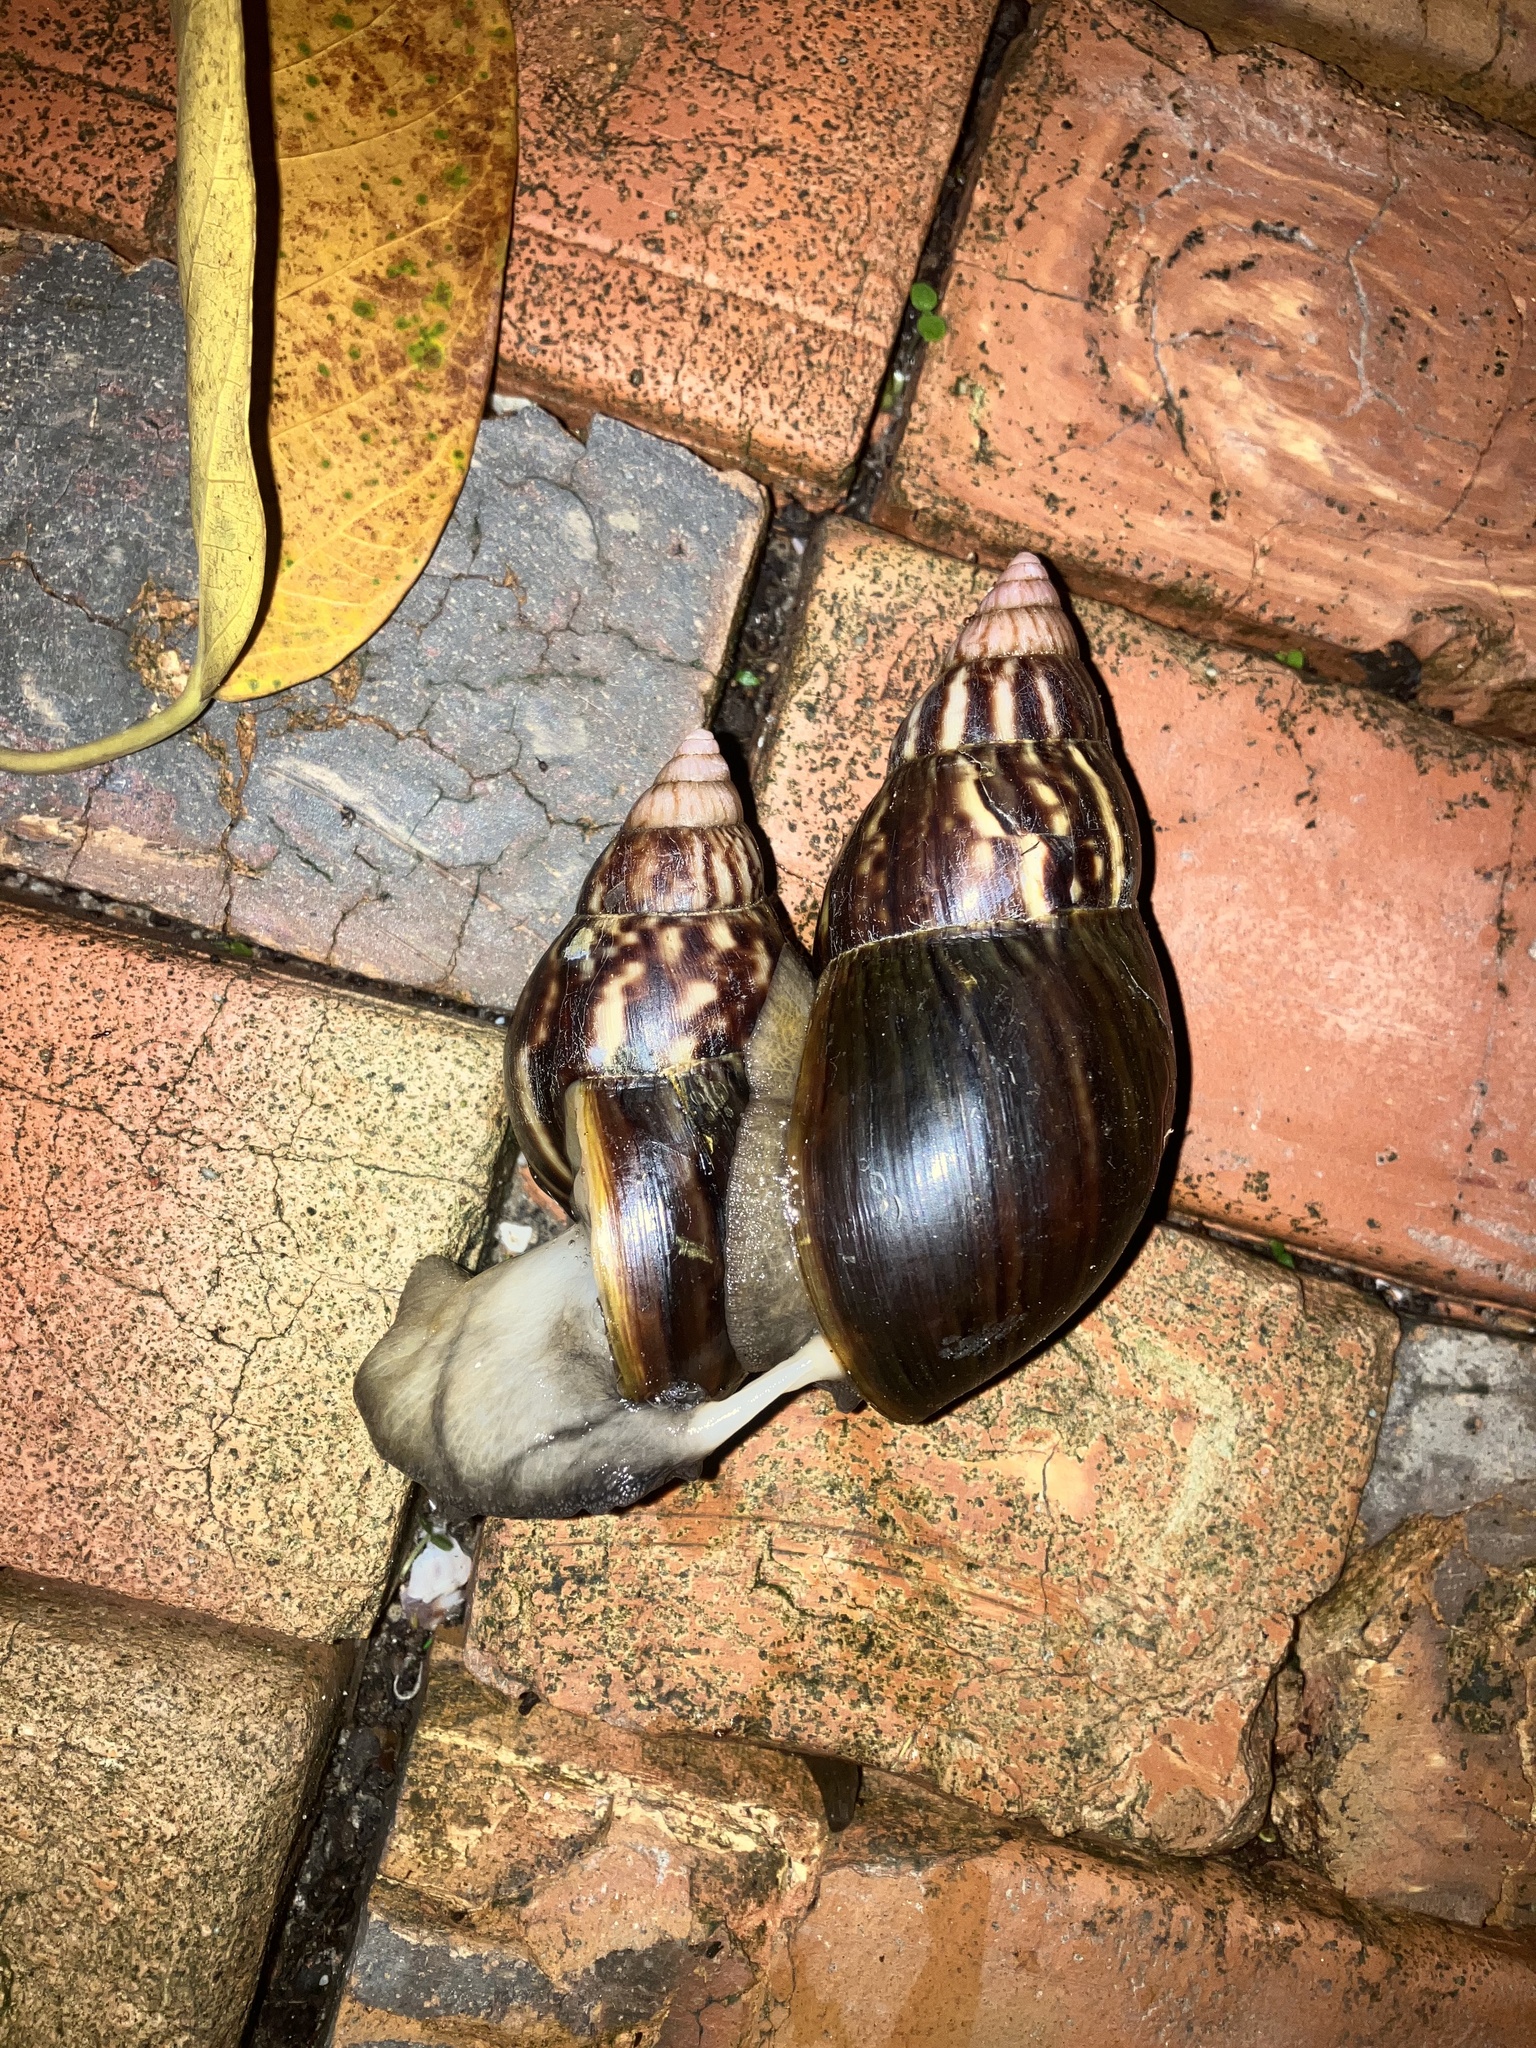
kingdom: Animalia
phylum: Mollusca
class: Gastropoda
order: Stylommatophora
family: Achatinidae
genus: Lissachatina
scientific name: Lissachatina fulica
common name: Giant african snail
